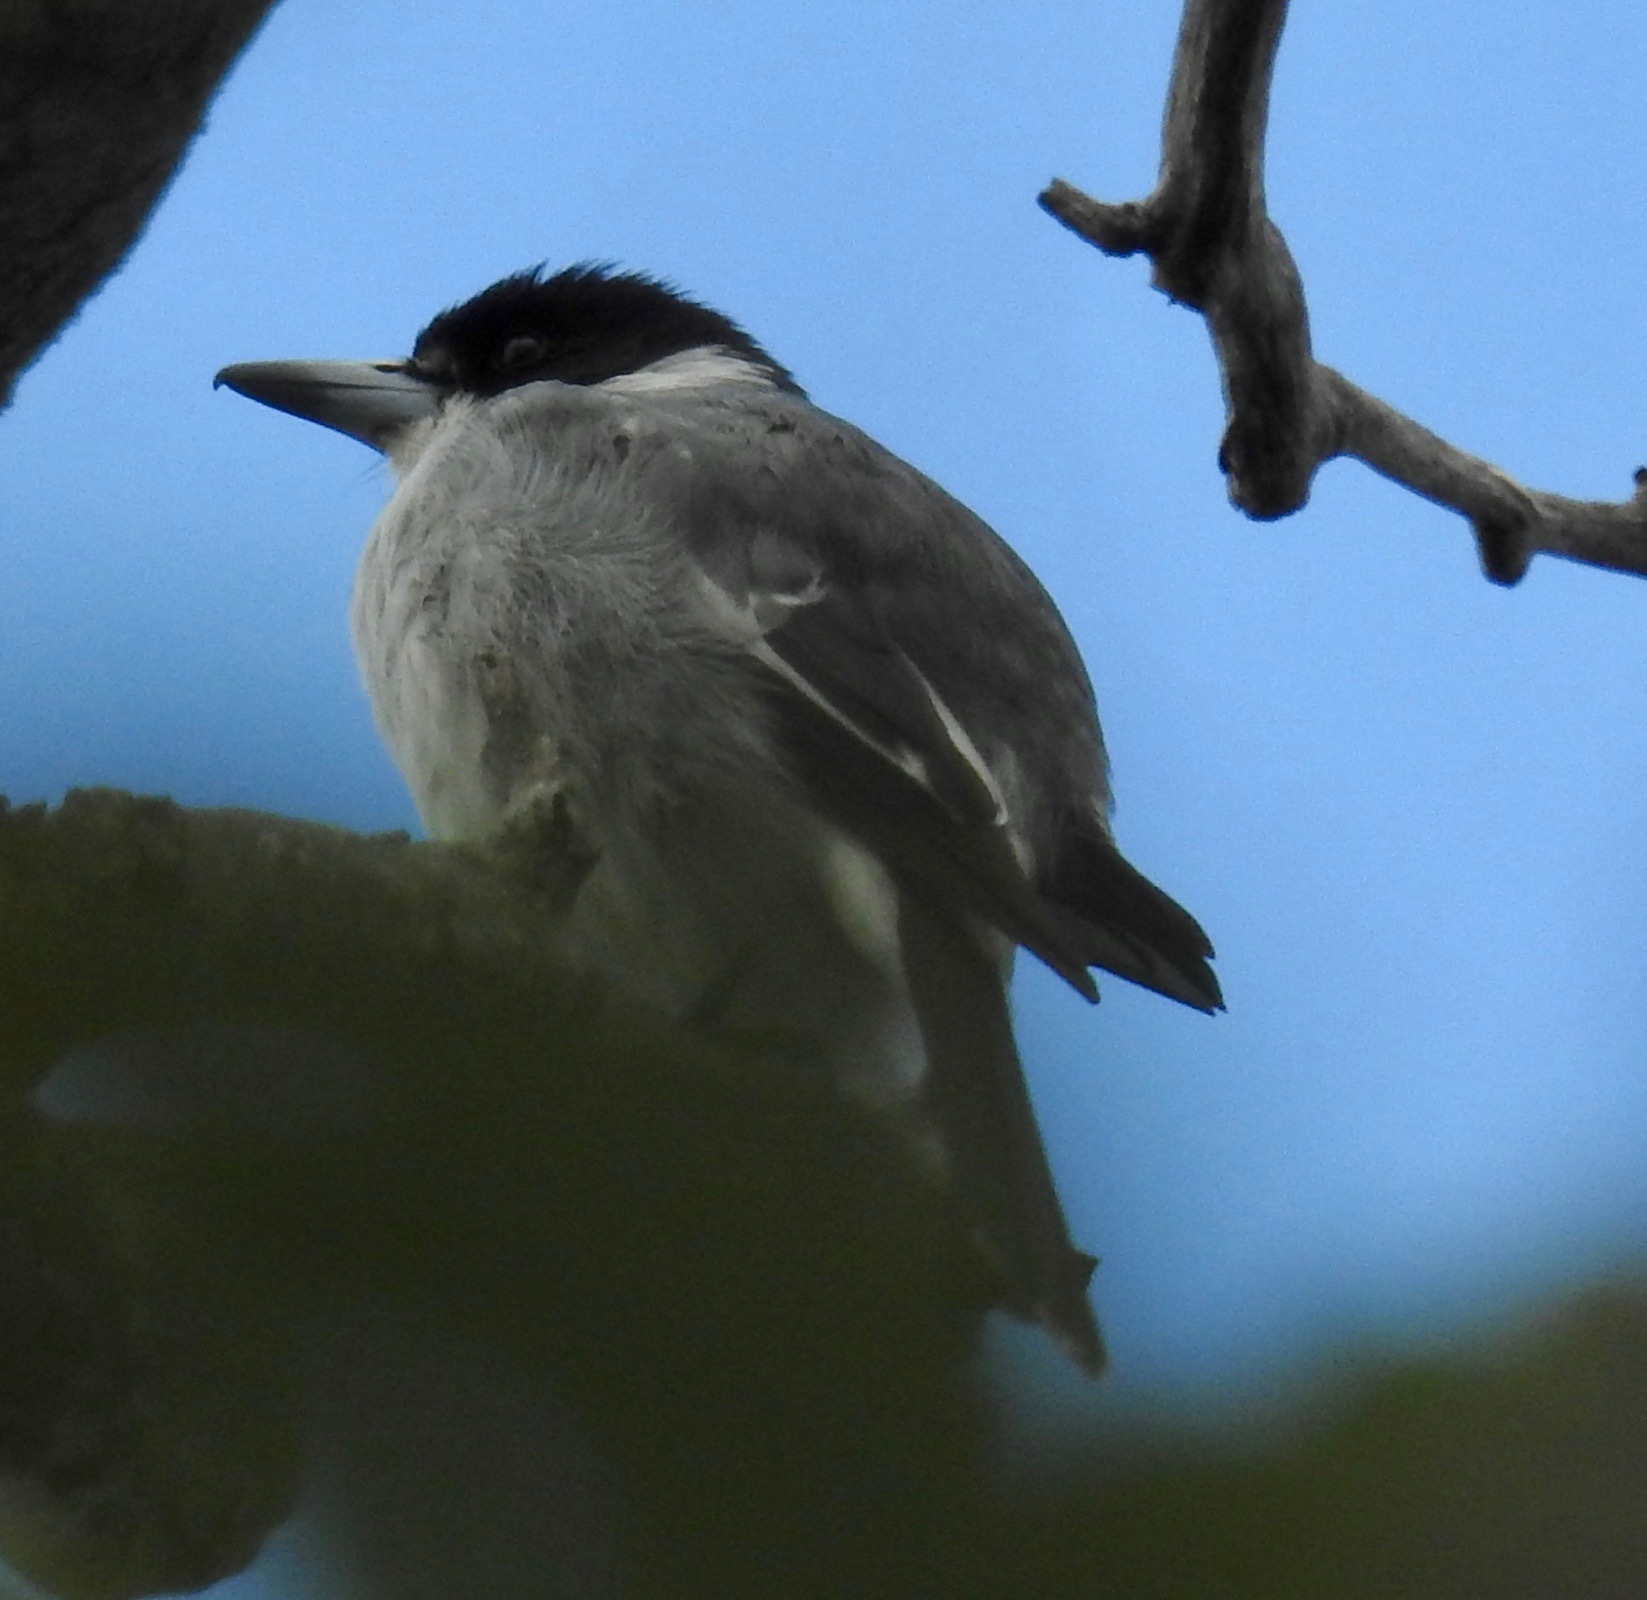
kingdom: Animalia
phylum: Chordata
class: Aves
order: Passeriformes
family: Cracticidae
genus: Cracticus
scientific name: Cracticus torquatus
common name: Grey butcherbird
